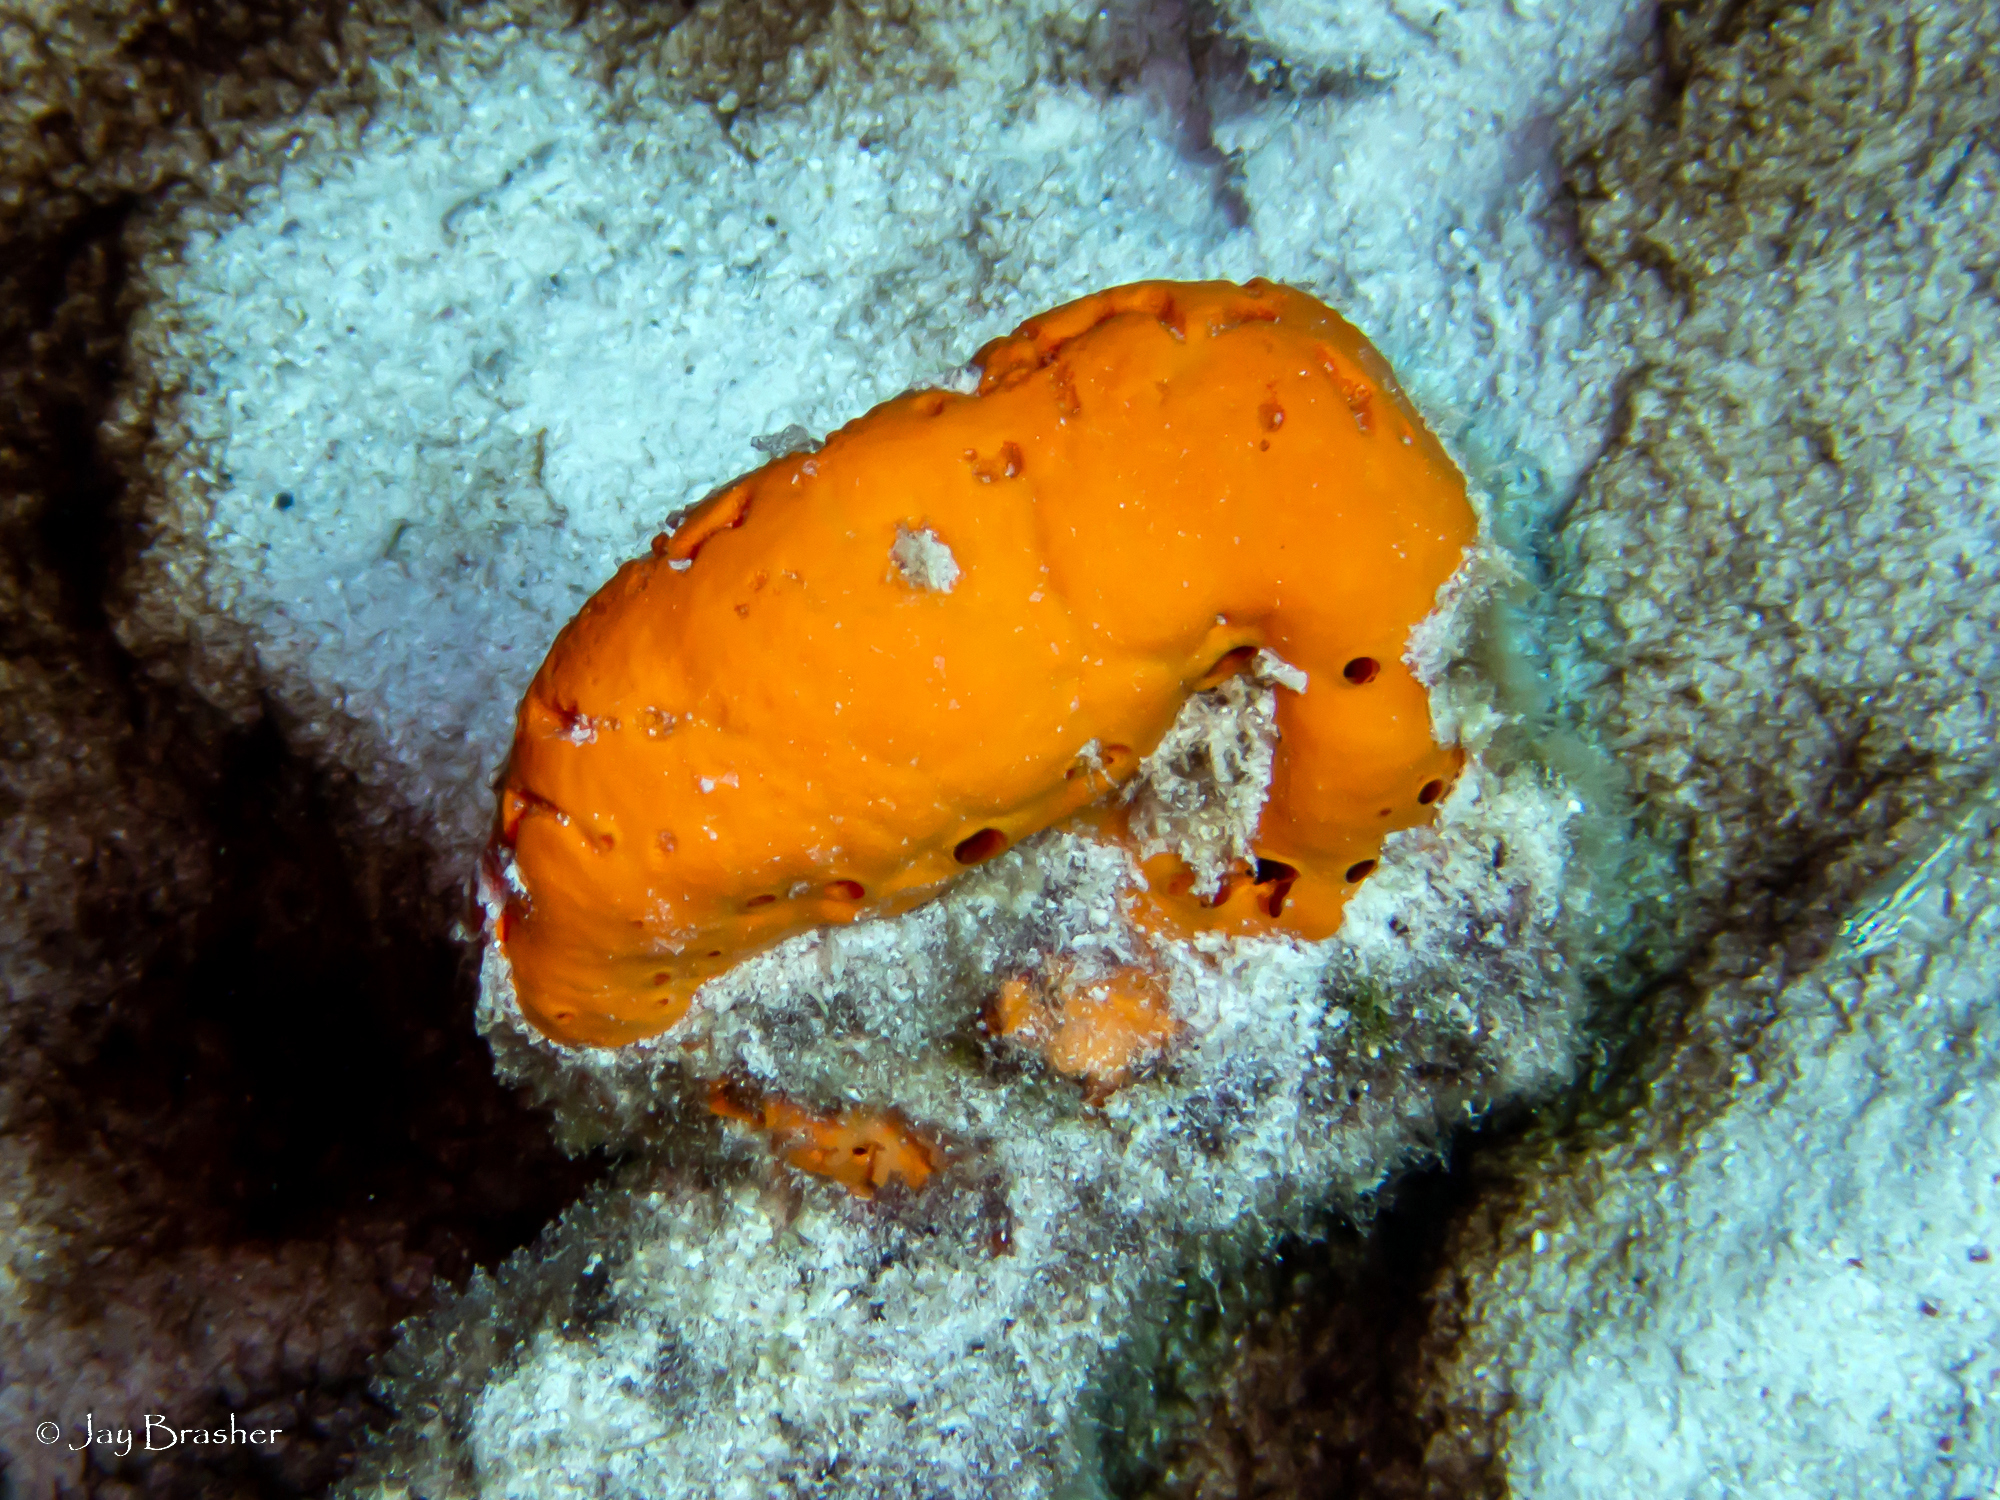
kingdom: Animalia
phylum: Porifera
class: Demospongiae
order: Agelasida
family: Agelasidae
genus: Agelas
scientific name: Agelas sventres
